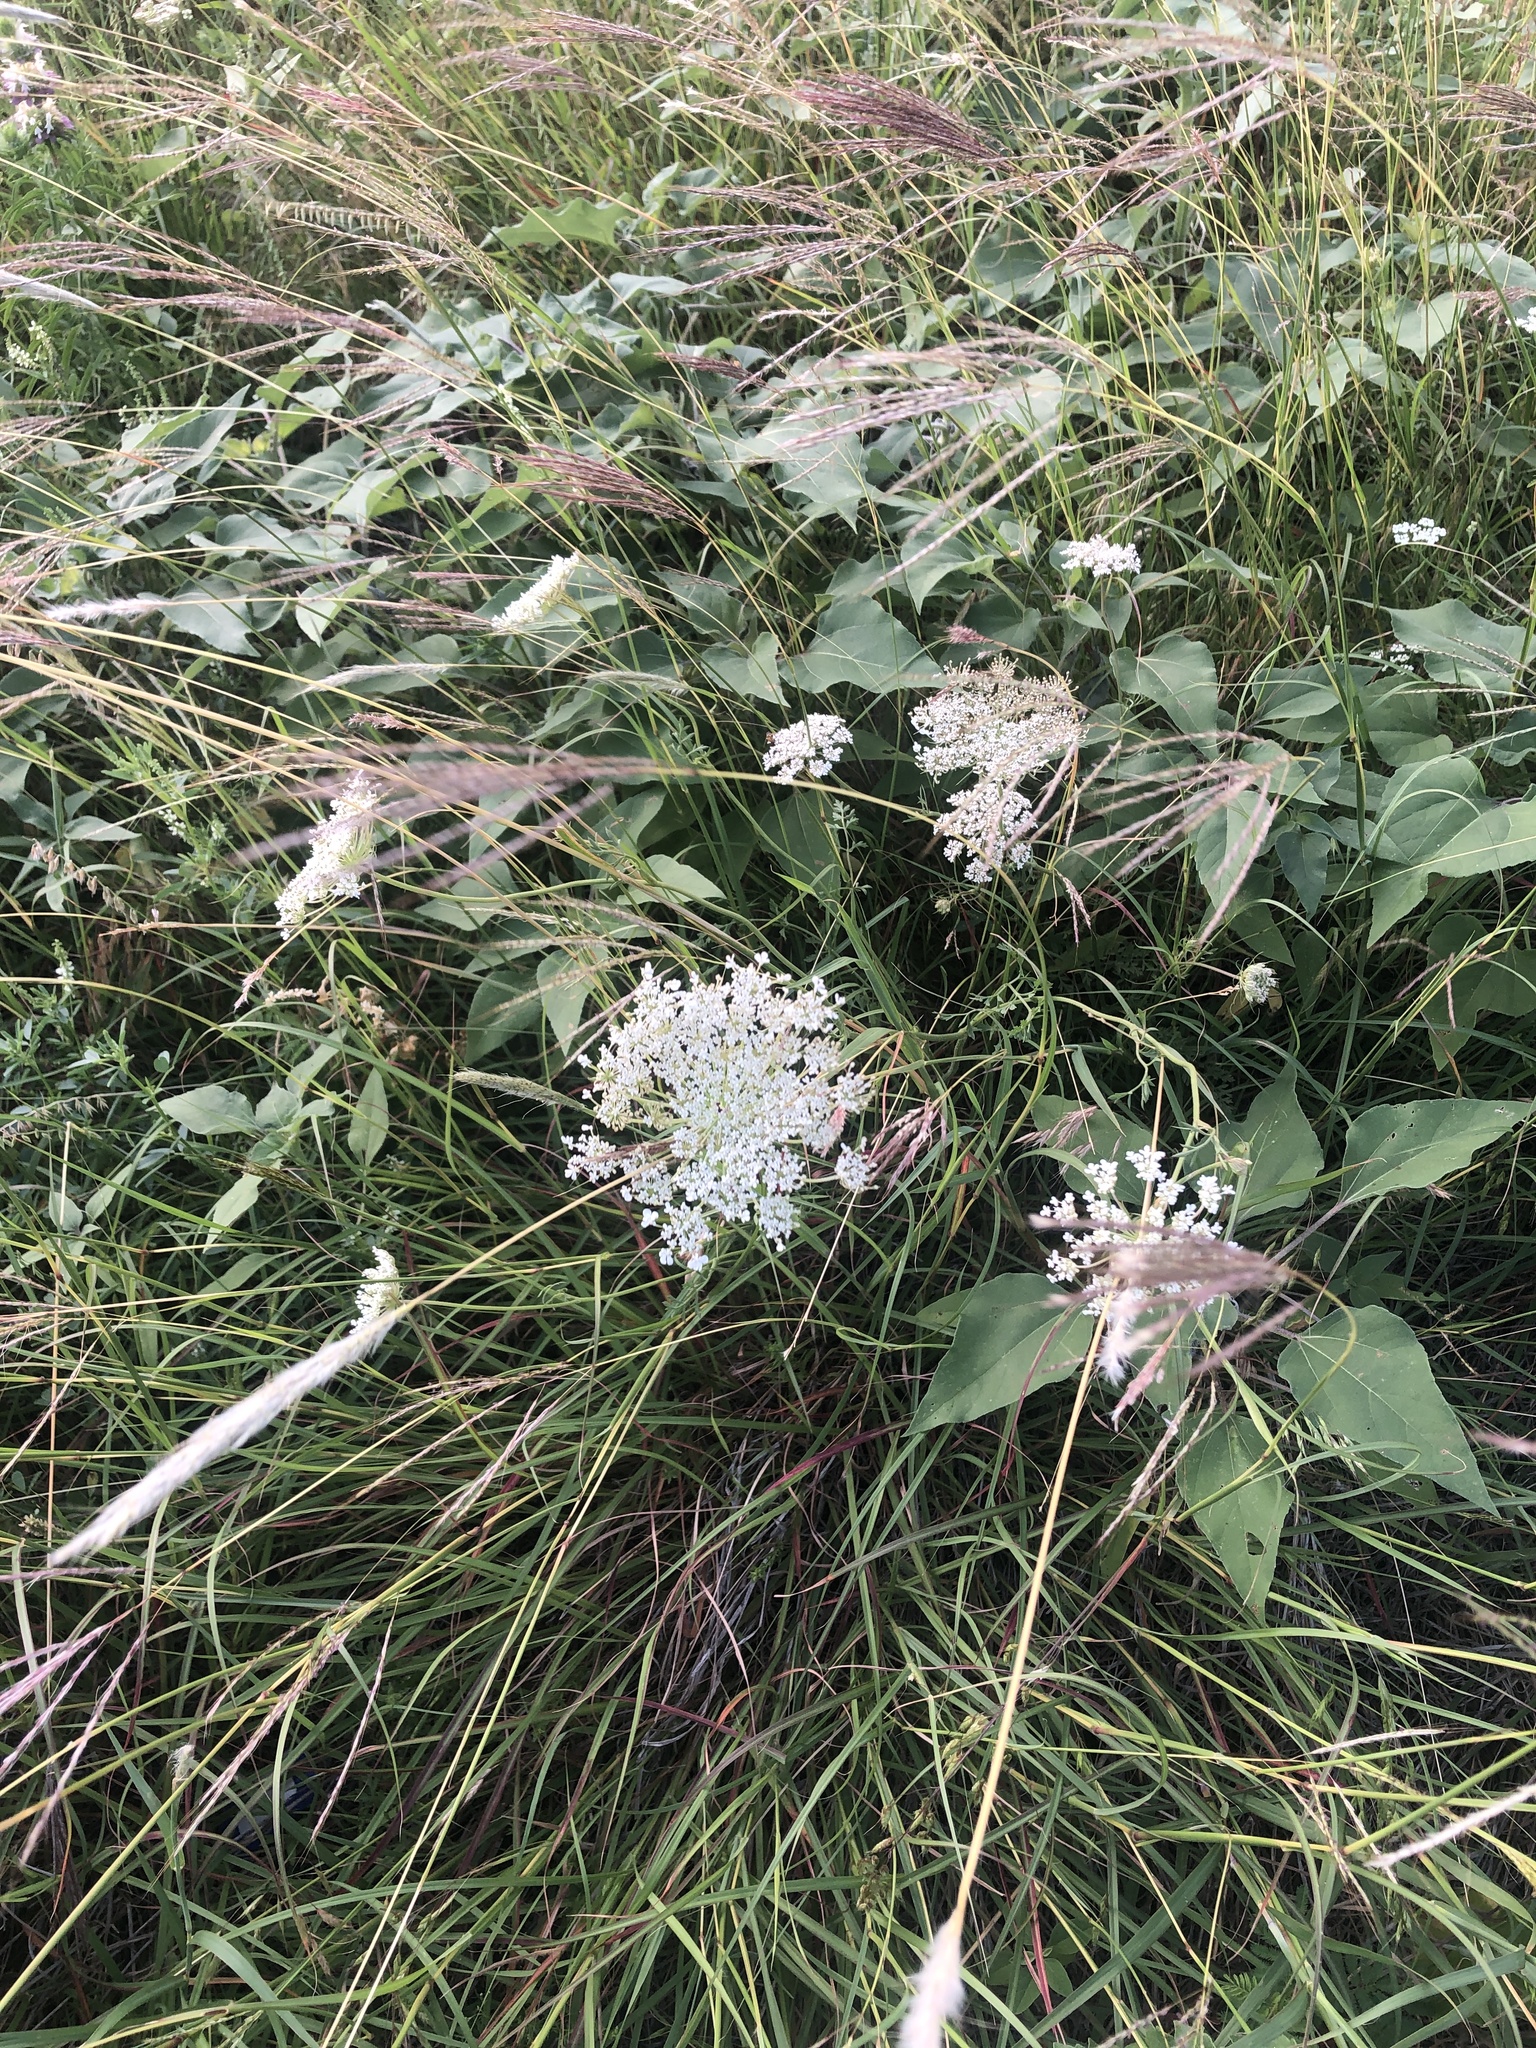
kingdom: Plantae
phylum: Tracheophyta
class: Magnoliopsida
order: Apiales
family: Apiaceae
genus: Daucus
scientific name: Daucus carota
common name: Wild carrot
